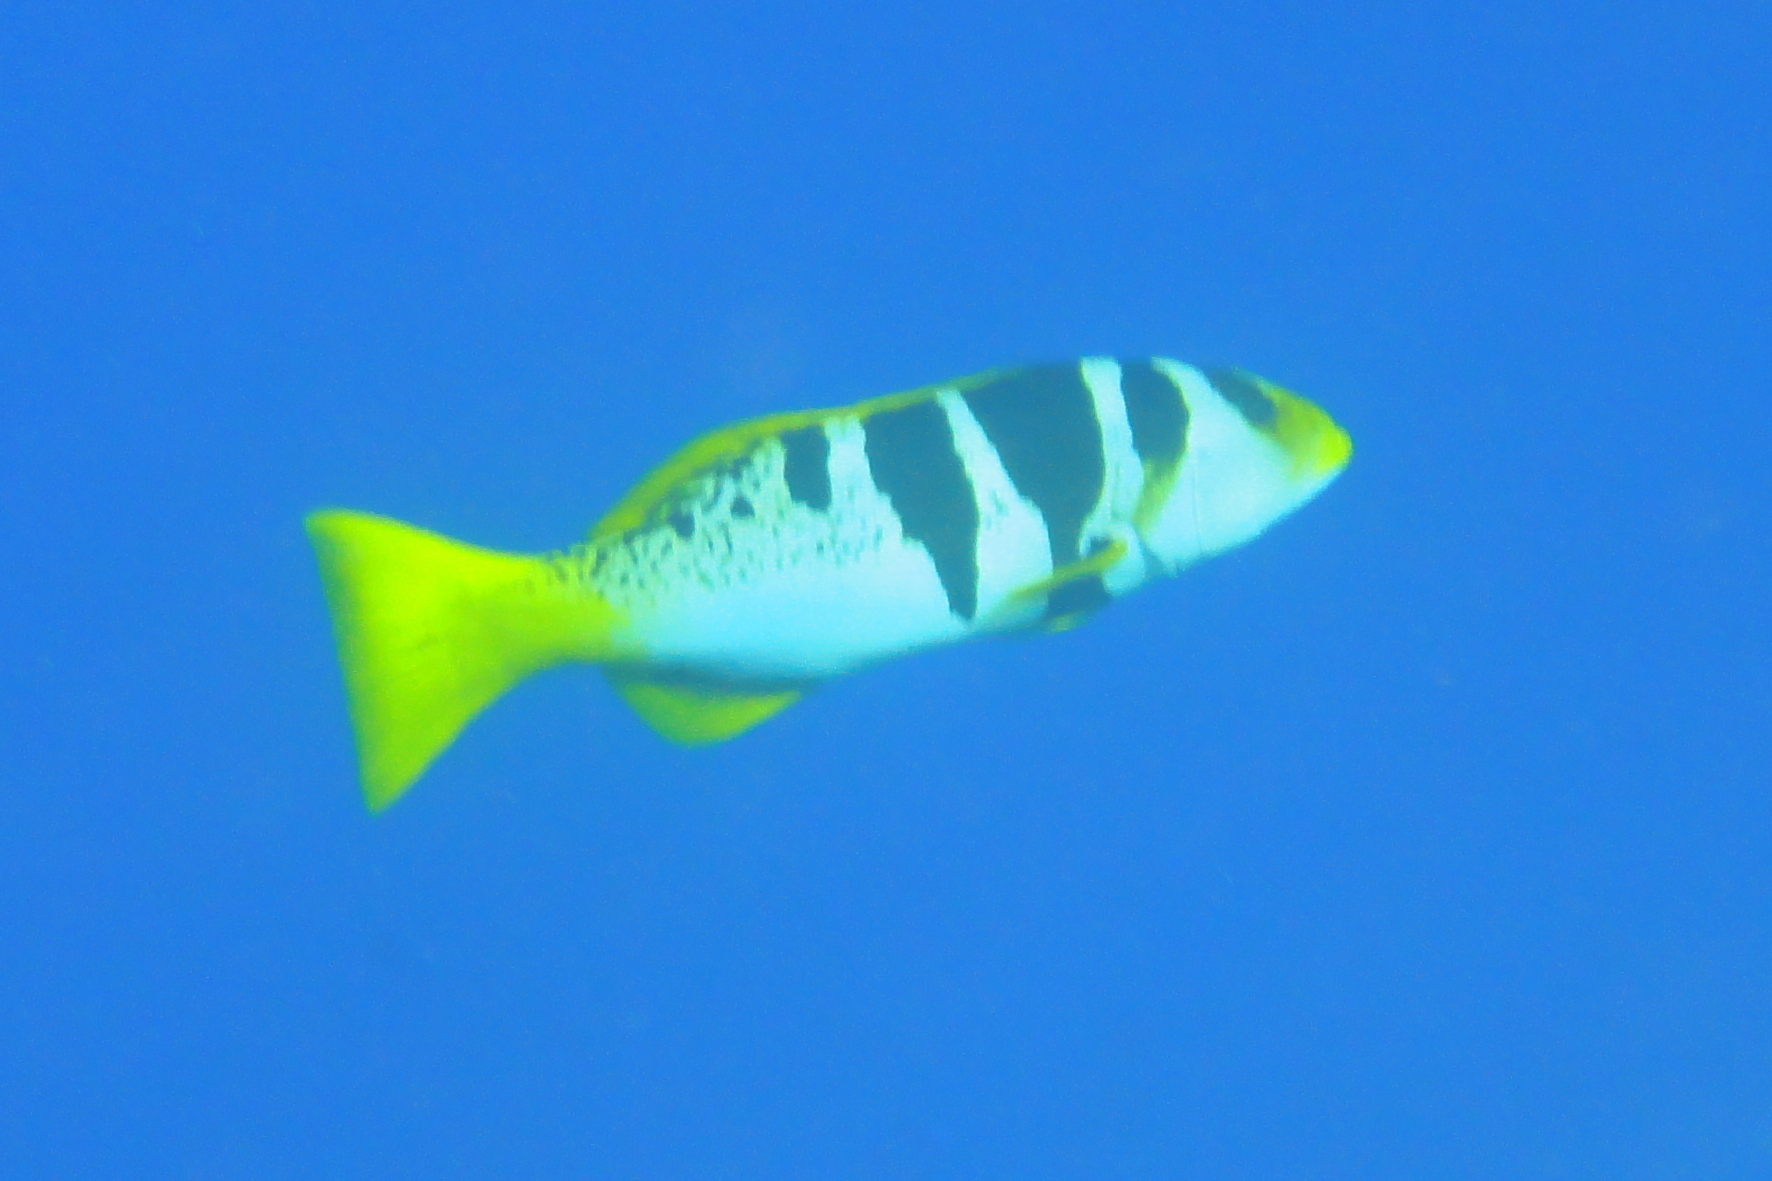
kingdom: Animalia
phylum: Chordata
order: Perciformes
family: Serranidae
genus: Plectropomus
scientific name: Plectropomus laevis
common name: Chinese footballer
